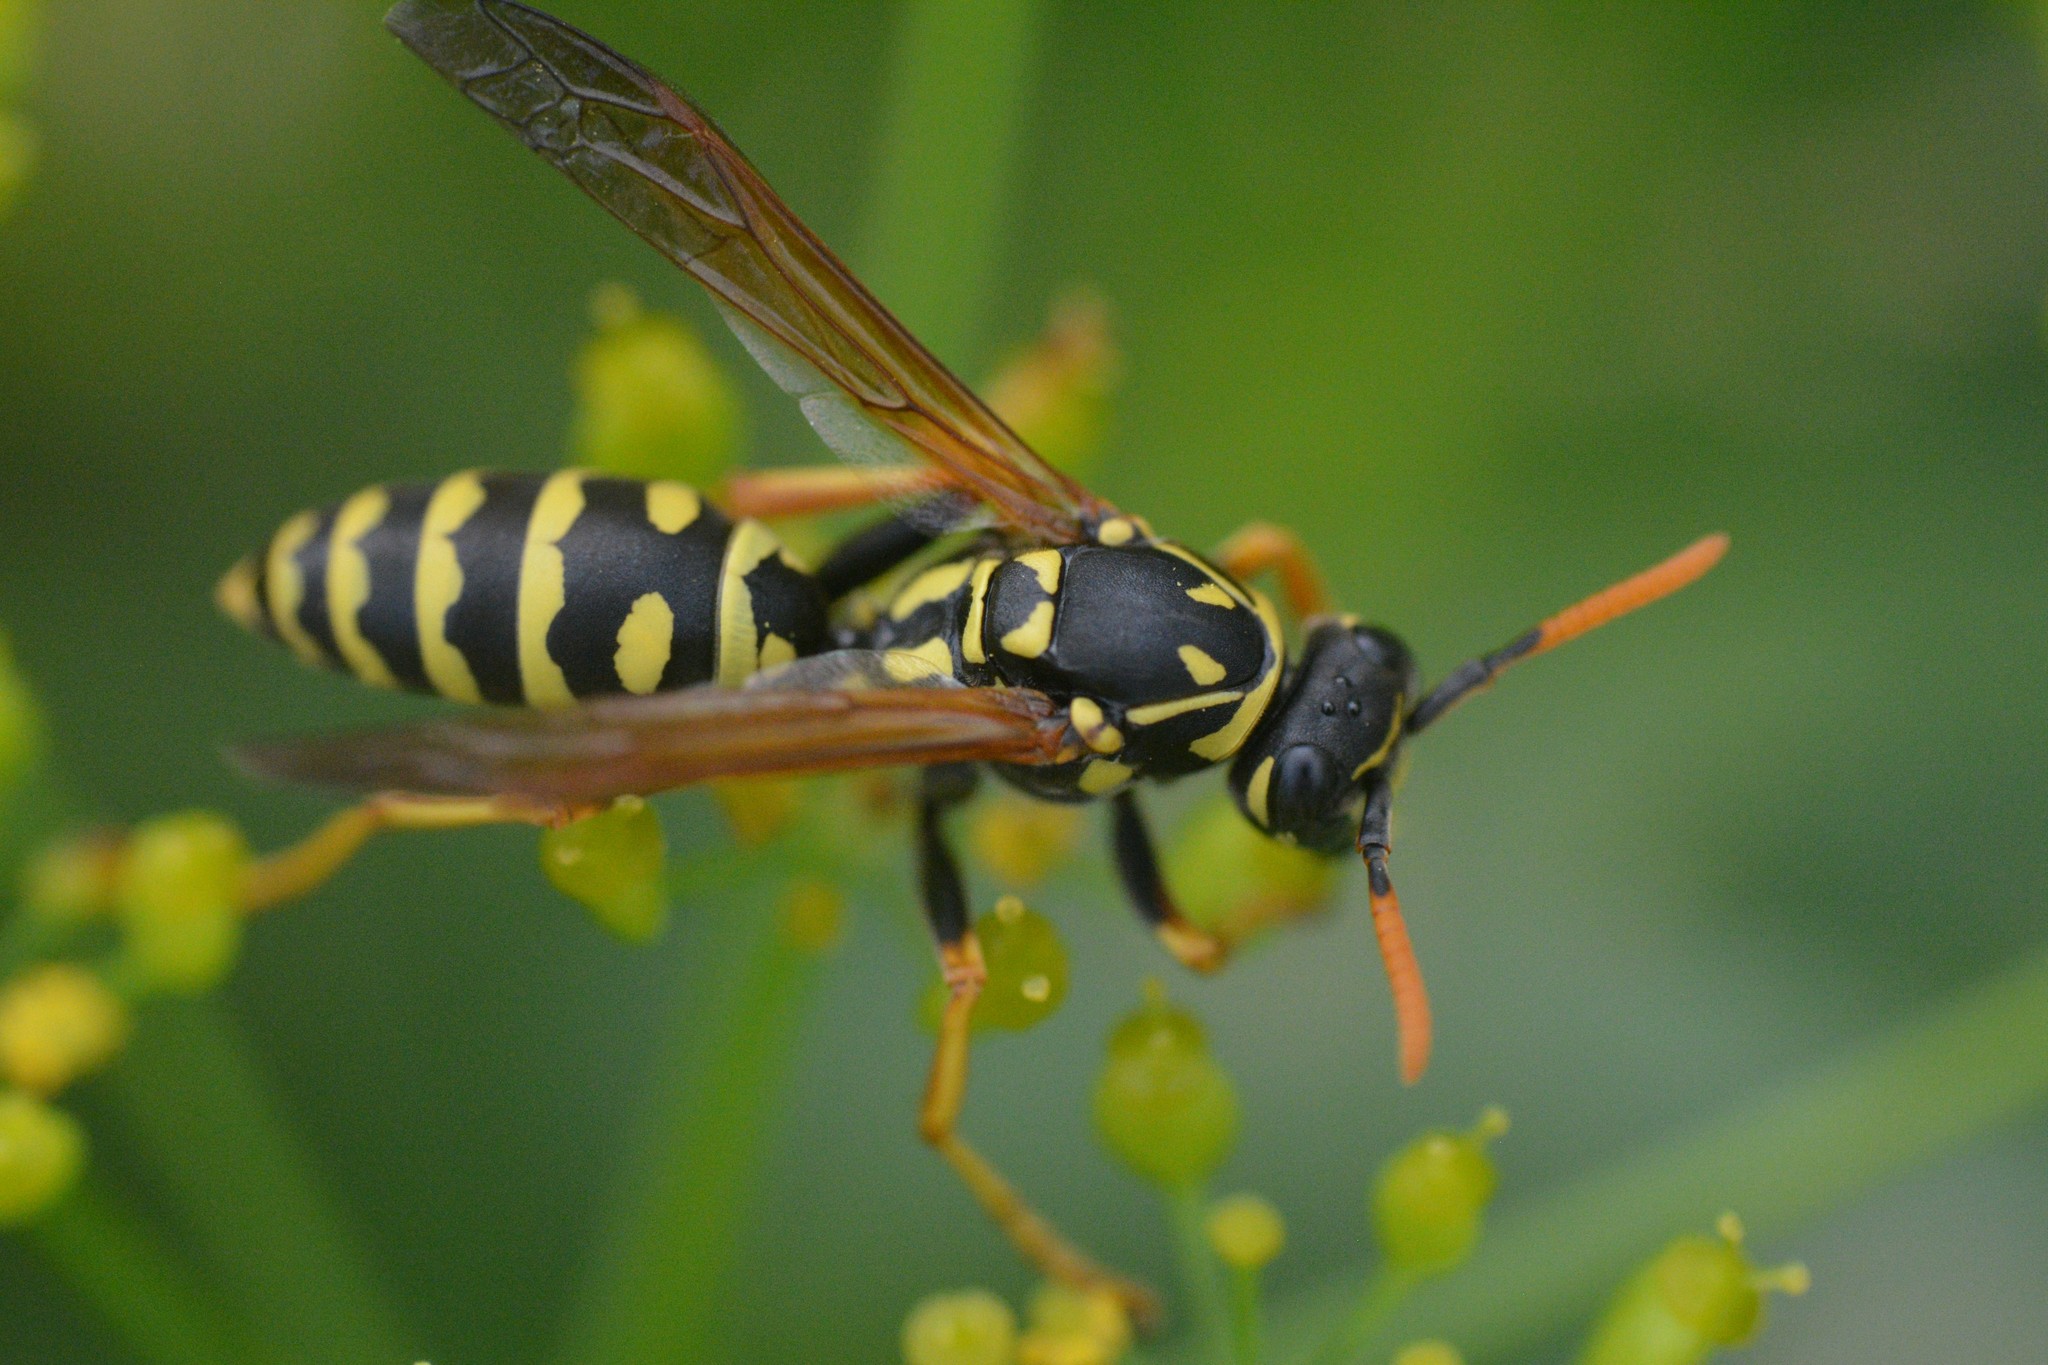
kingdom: Animalia
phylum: Arthropoda
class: Insecta
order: Hymenoptera
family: Eumenidae
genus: Polistes
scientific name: Polistes dominula
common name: Paper wasp
